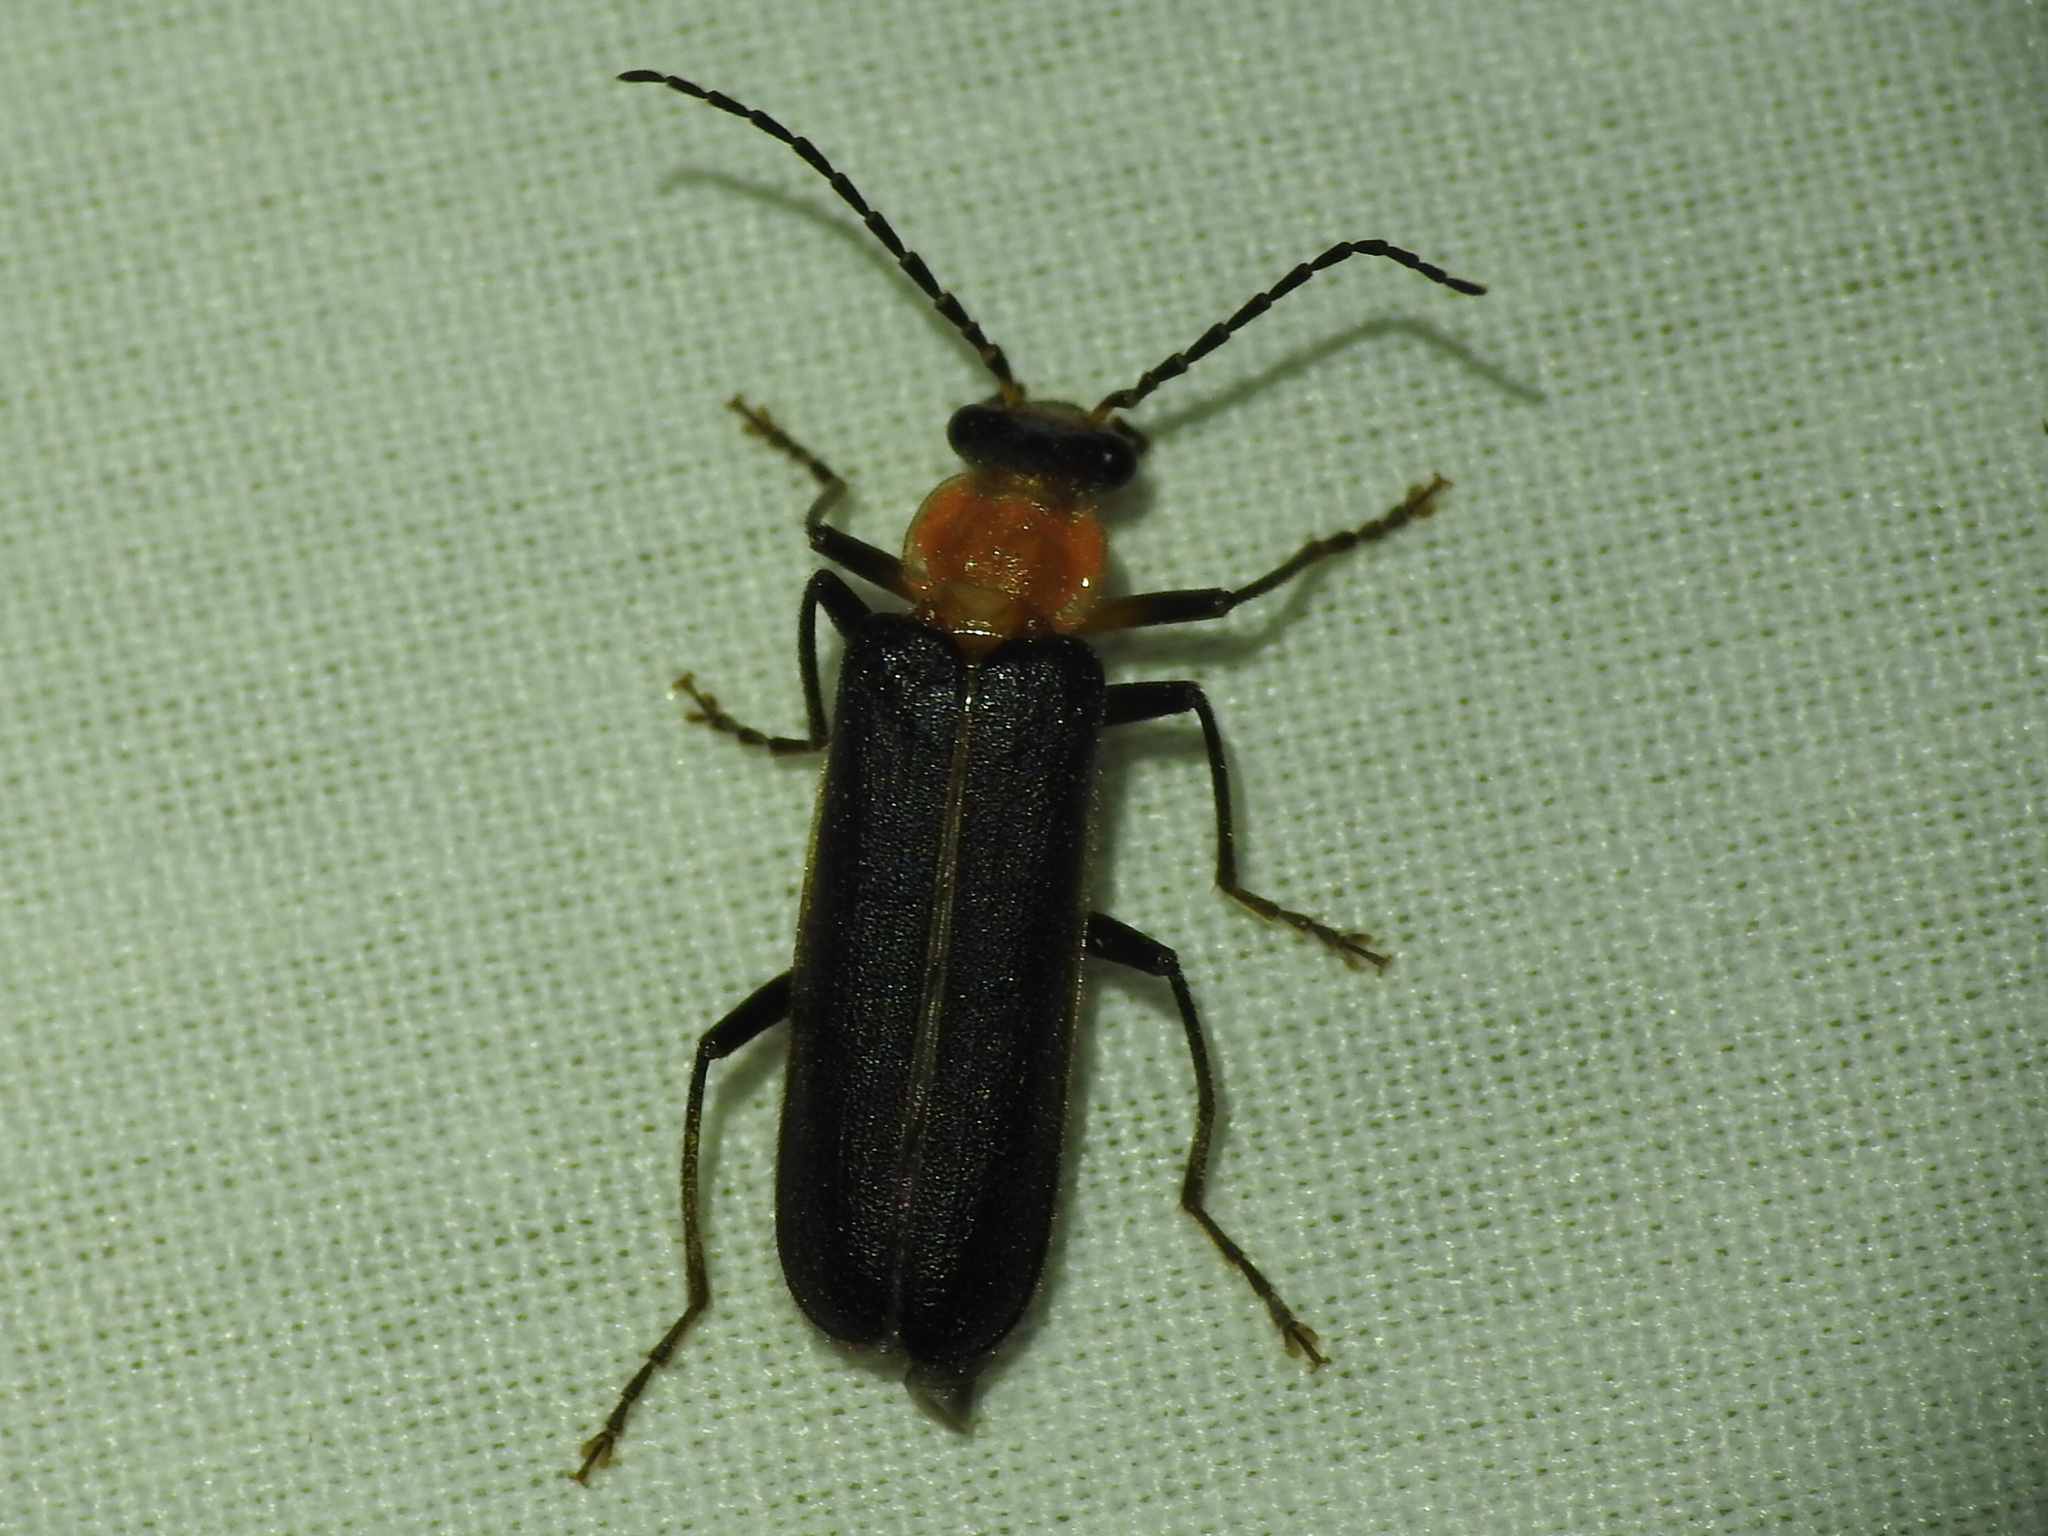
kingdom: Animalia
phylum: Arthropoda
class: Insecta
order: Coleoptera
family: Cantharidae
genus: Podabrus
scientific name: Podabrus flavicollis
